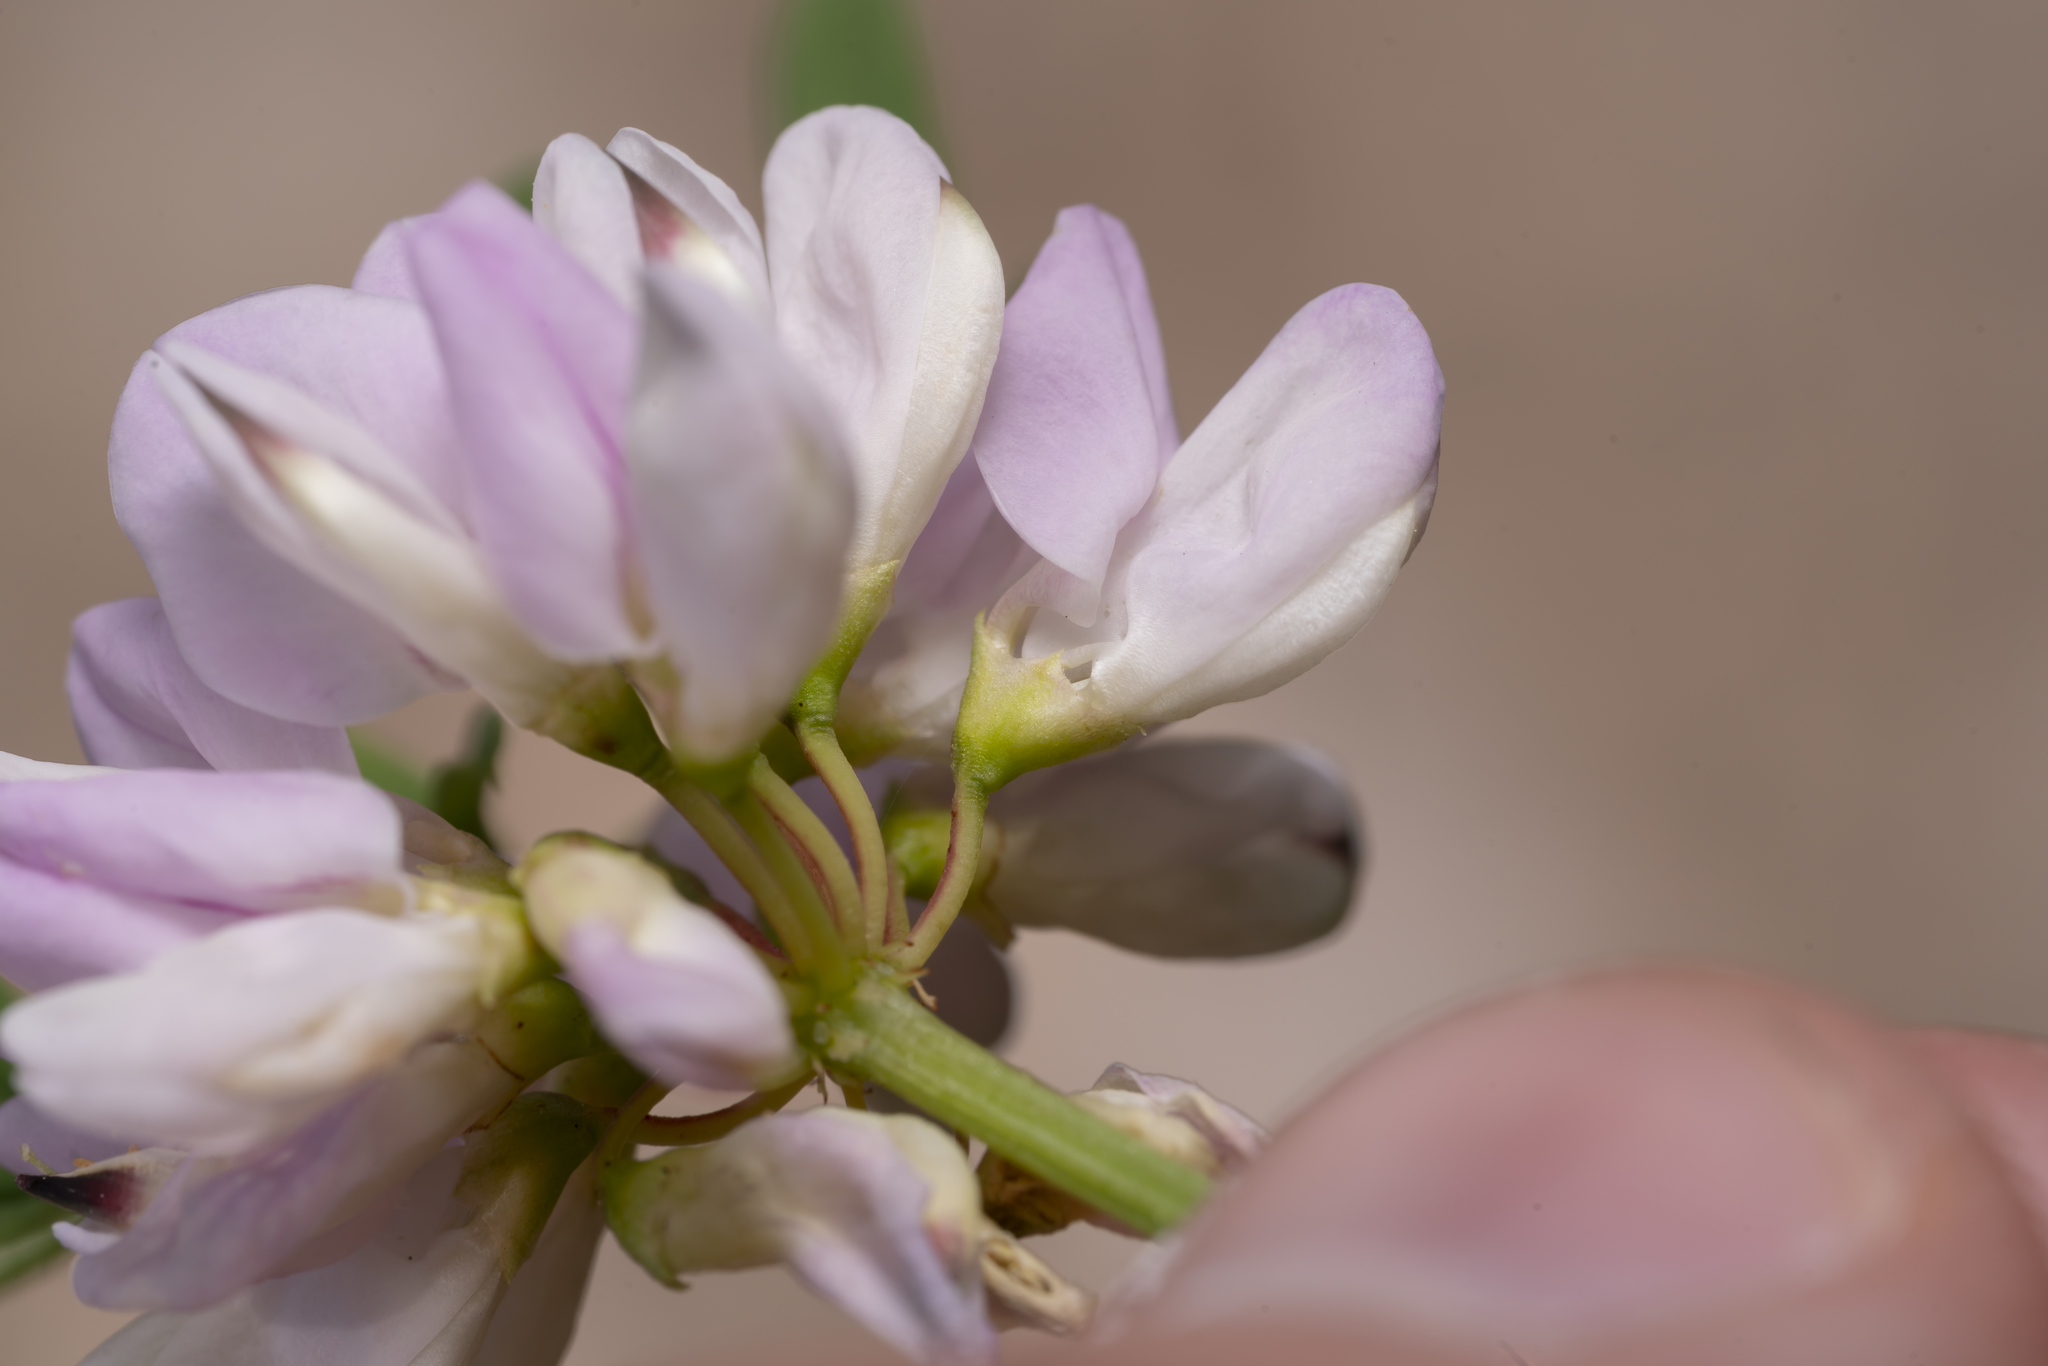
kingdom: Plantae
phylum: Tracheophyta
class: Magnoliopsida
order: Fabales
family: Fabaceae
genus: Coronilla
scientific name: Coronilla varia
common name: Crownvetch
